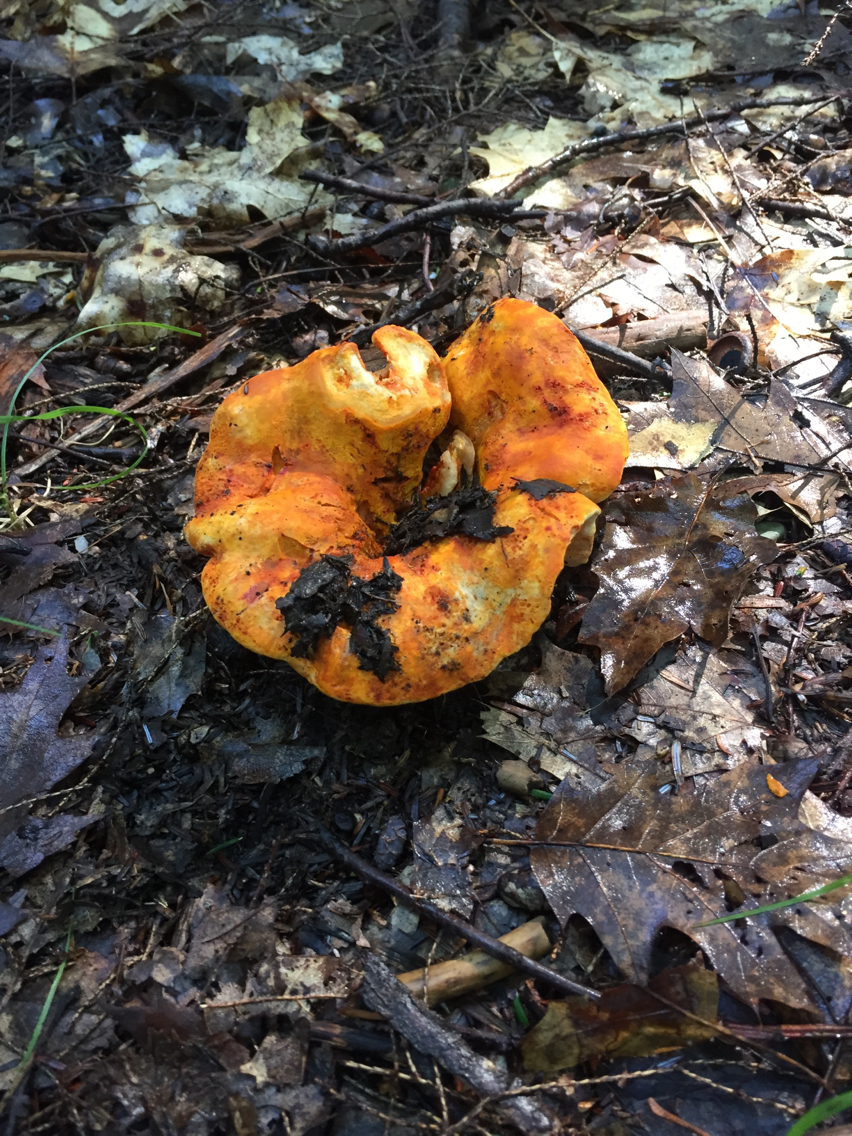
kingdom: Fungi
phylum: Ascomycota
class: Sordariomycetes
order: Hypocreales
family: Hypocreaceae
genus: Hypomyces
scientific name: Hypomyces lactifluorum
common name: Lobster mushroom
